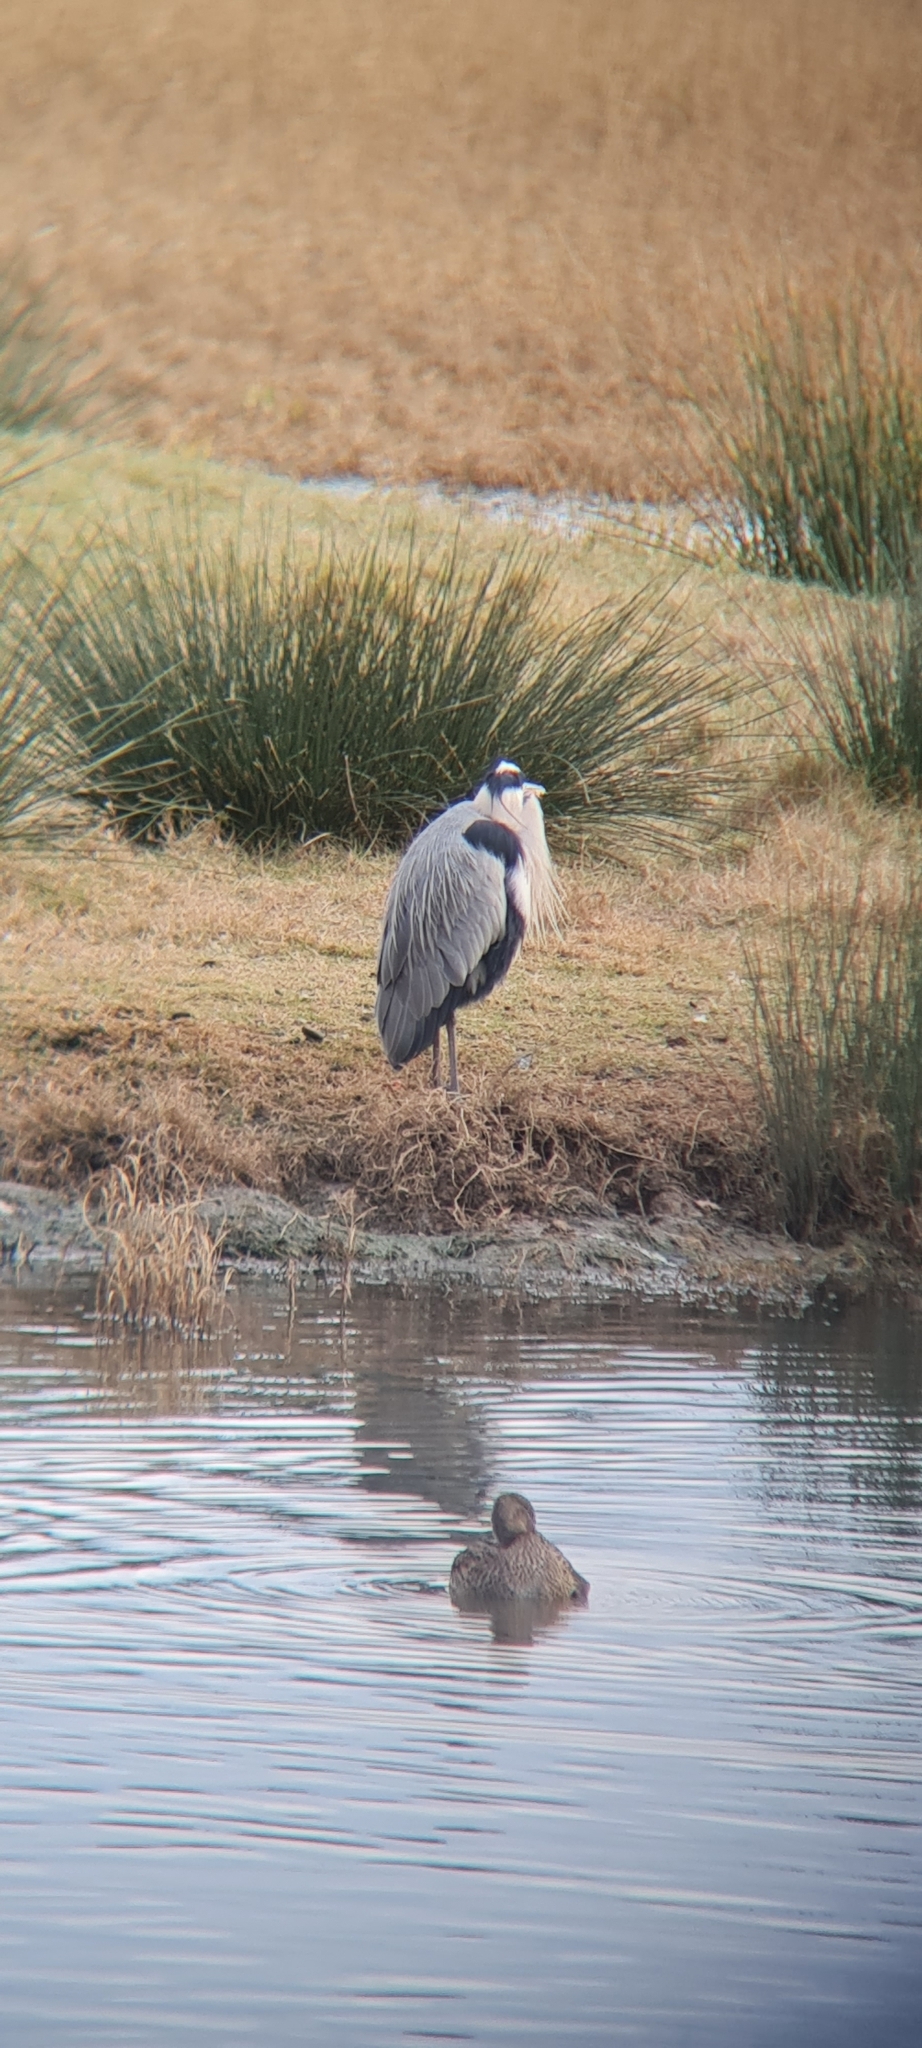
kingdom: Animalia
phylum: Chordata
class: Aves
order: Pelecaniformes
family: Ardeidae
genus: Ardea
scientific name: Ardea cinerea
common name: Grey heron
